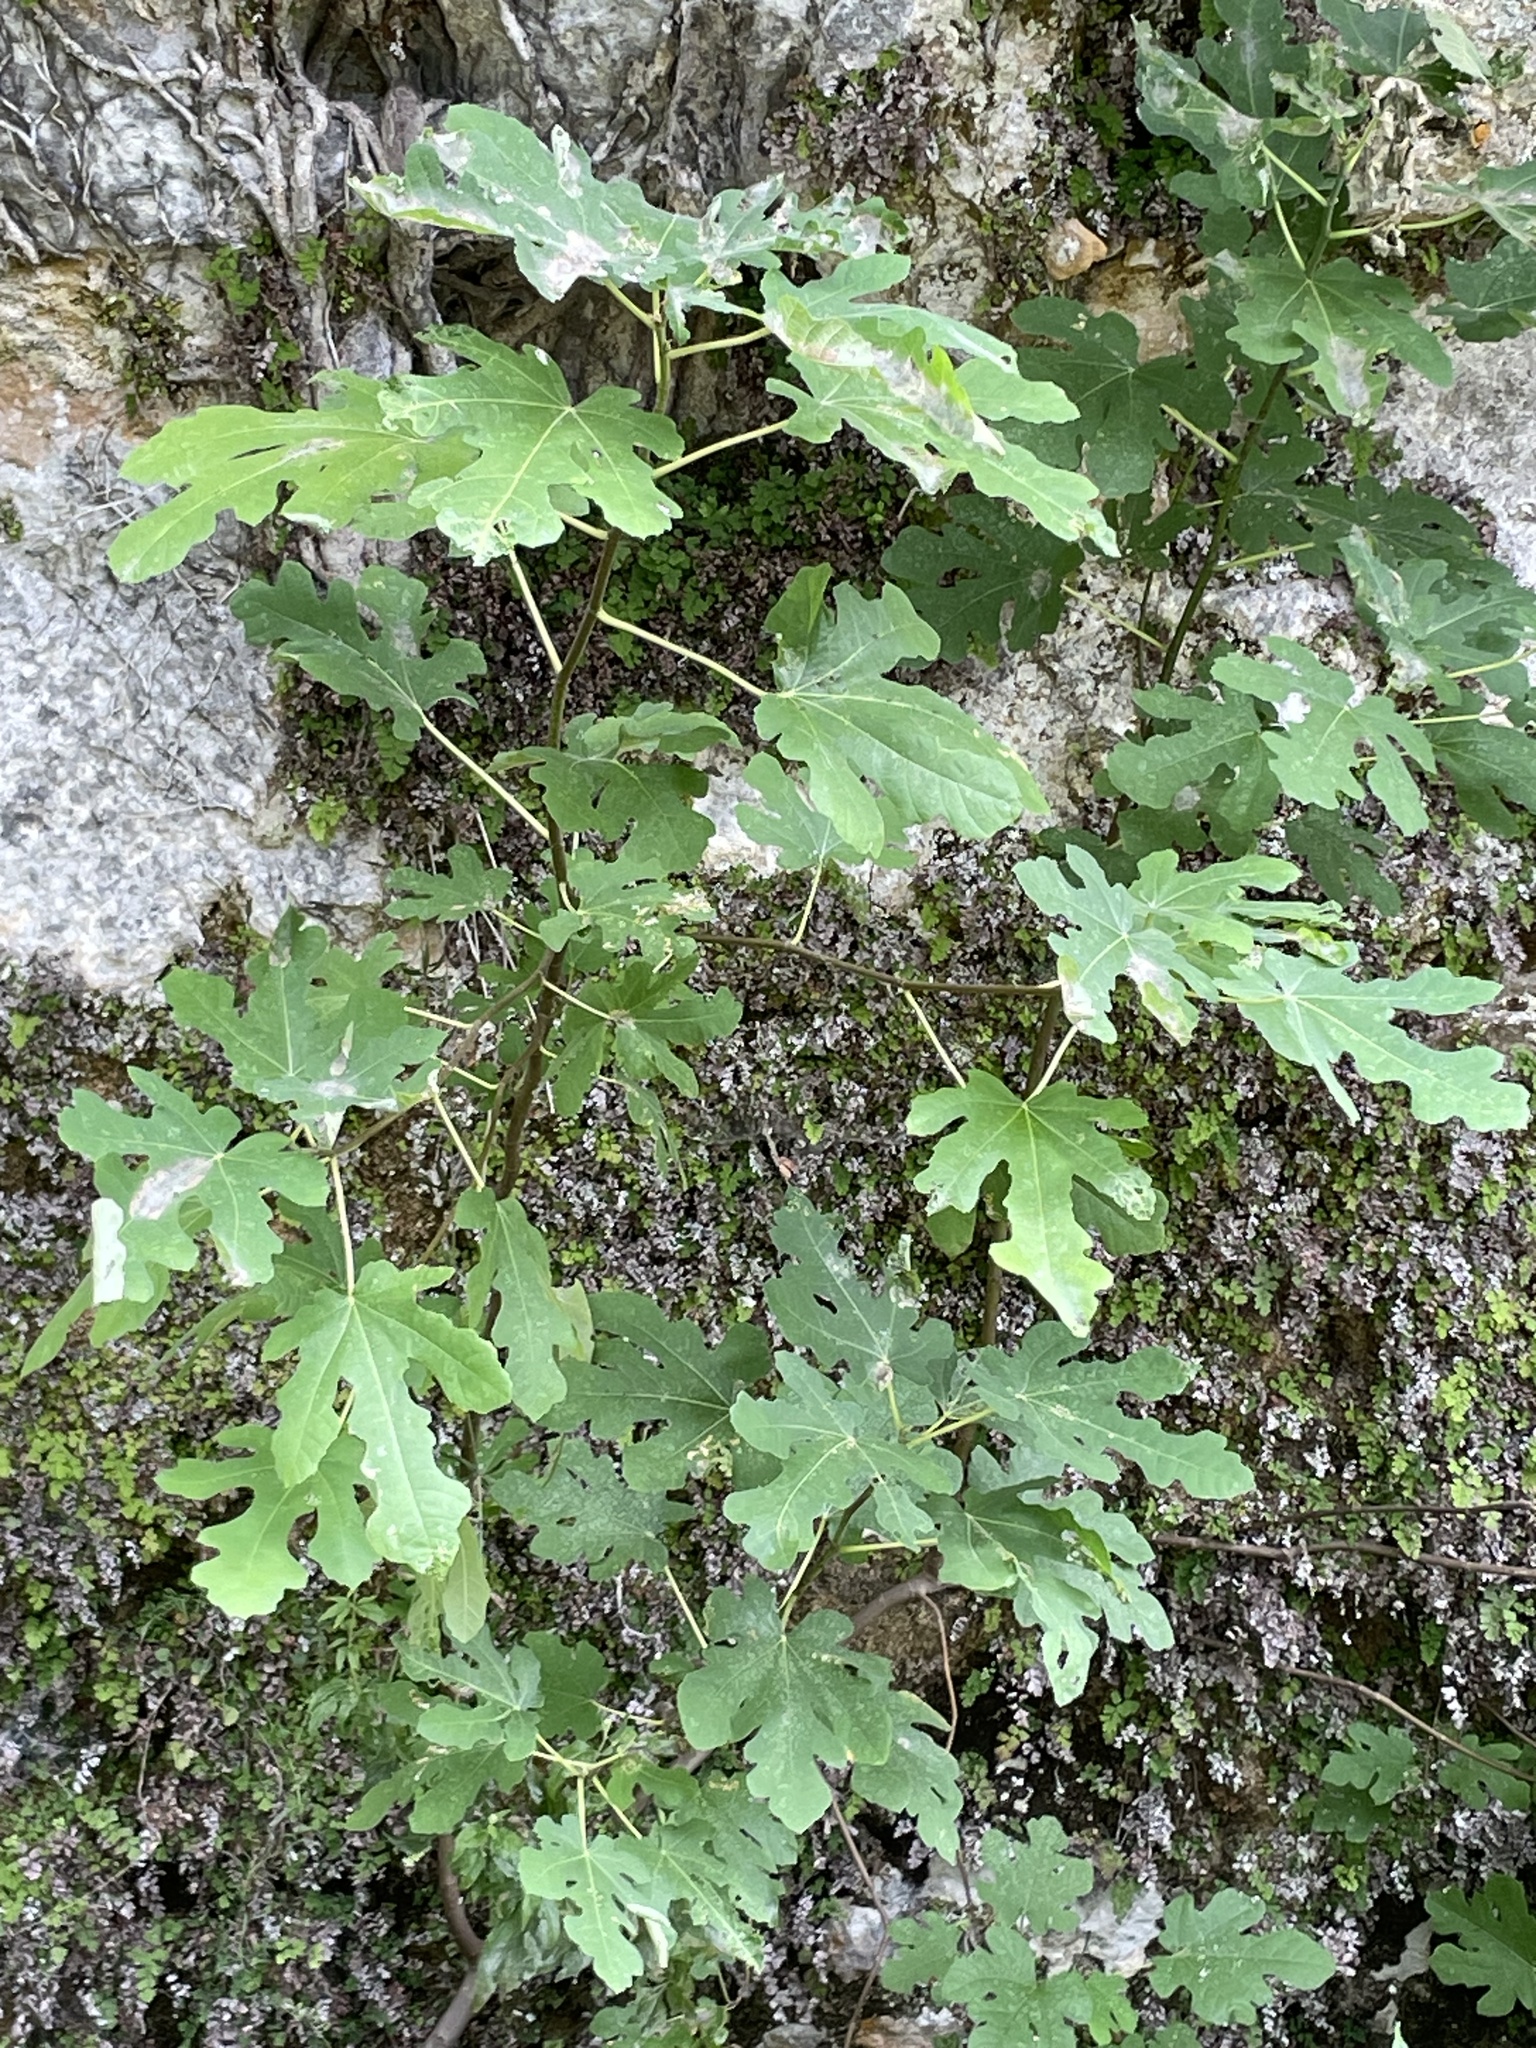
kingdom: Plantae
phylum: Tracheophyta
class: Magnoliopsida
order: Rosales
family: Moraceae
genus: Ficus
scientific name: Ficus carica
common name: Fig
